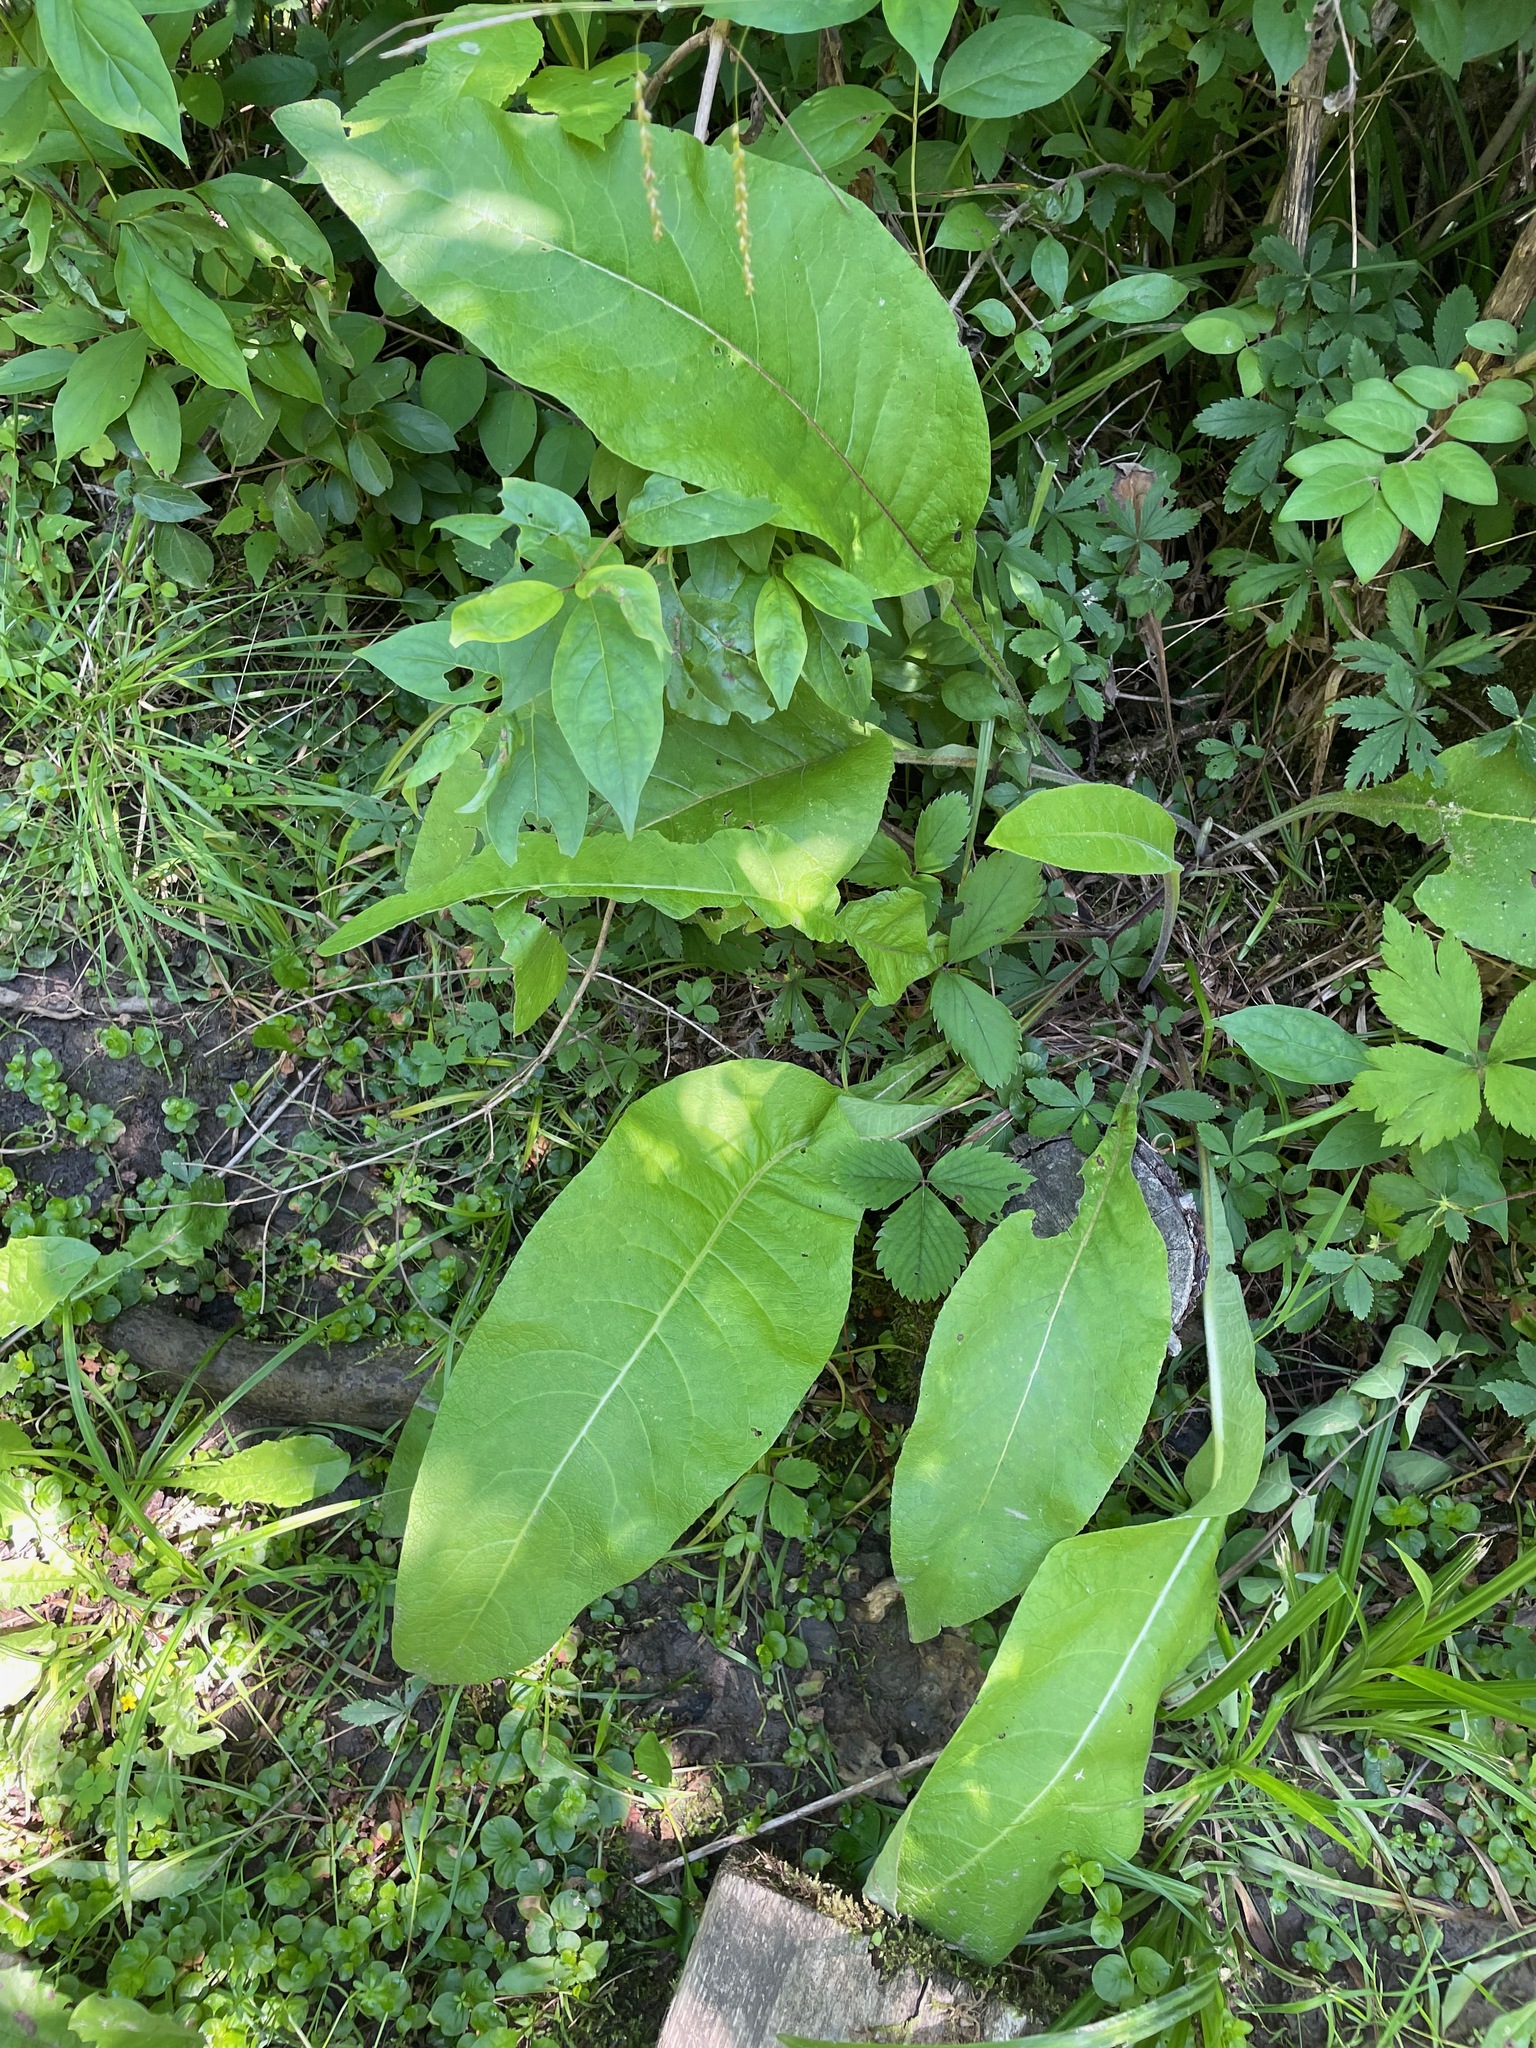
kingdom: Plantae
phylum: Tracheophyta
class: Magnoliopsida
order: Asterales
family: Asteraceae
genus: Inula
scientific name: Inula helenium
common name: Elecampane
